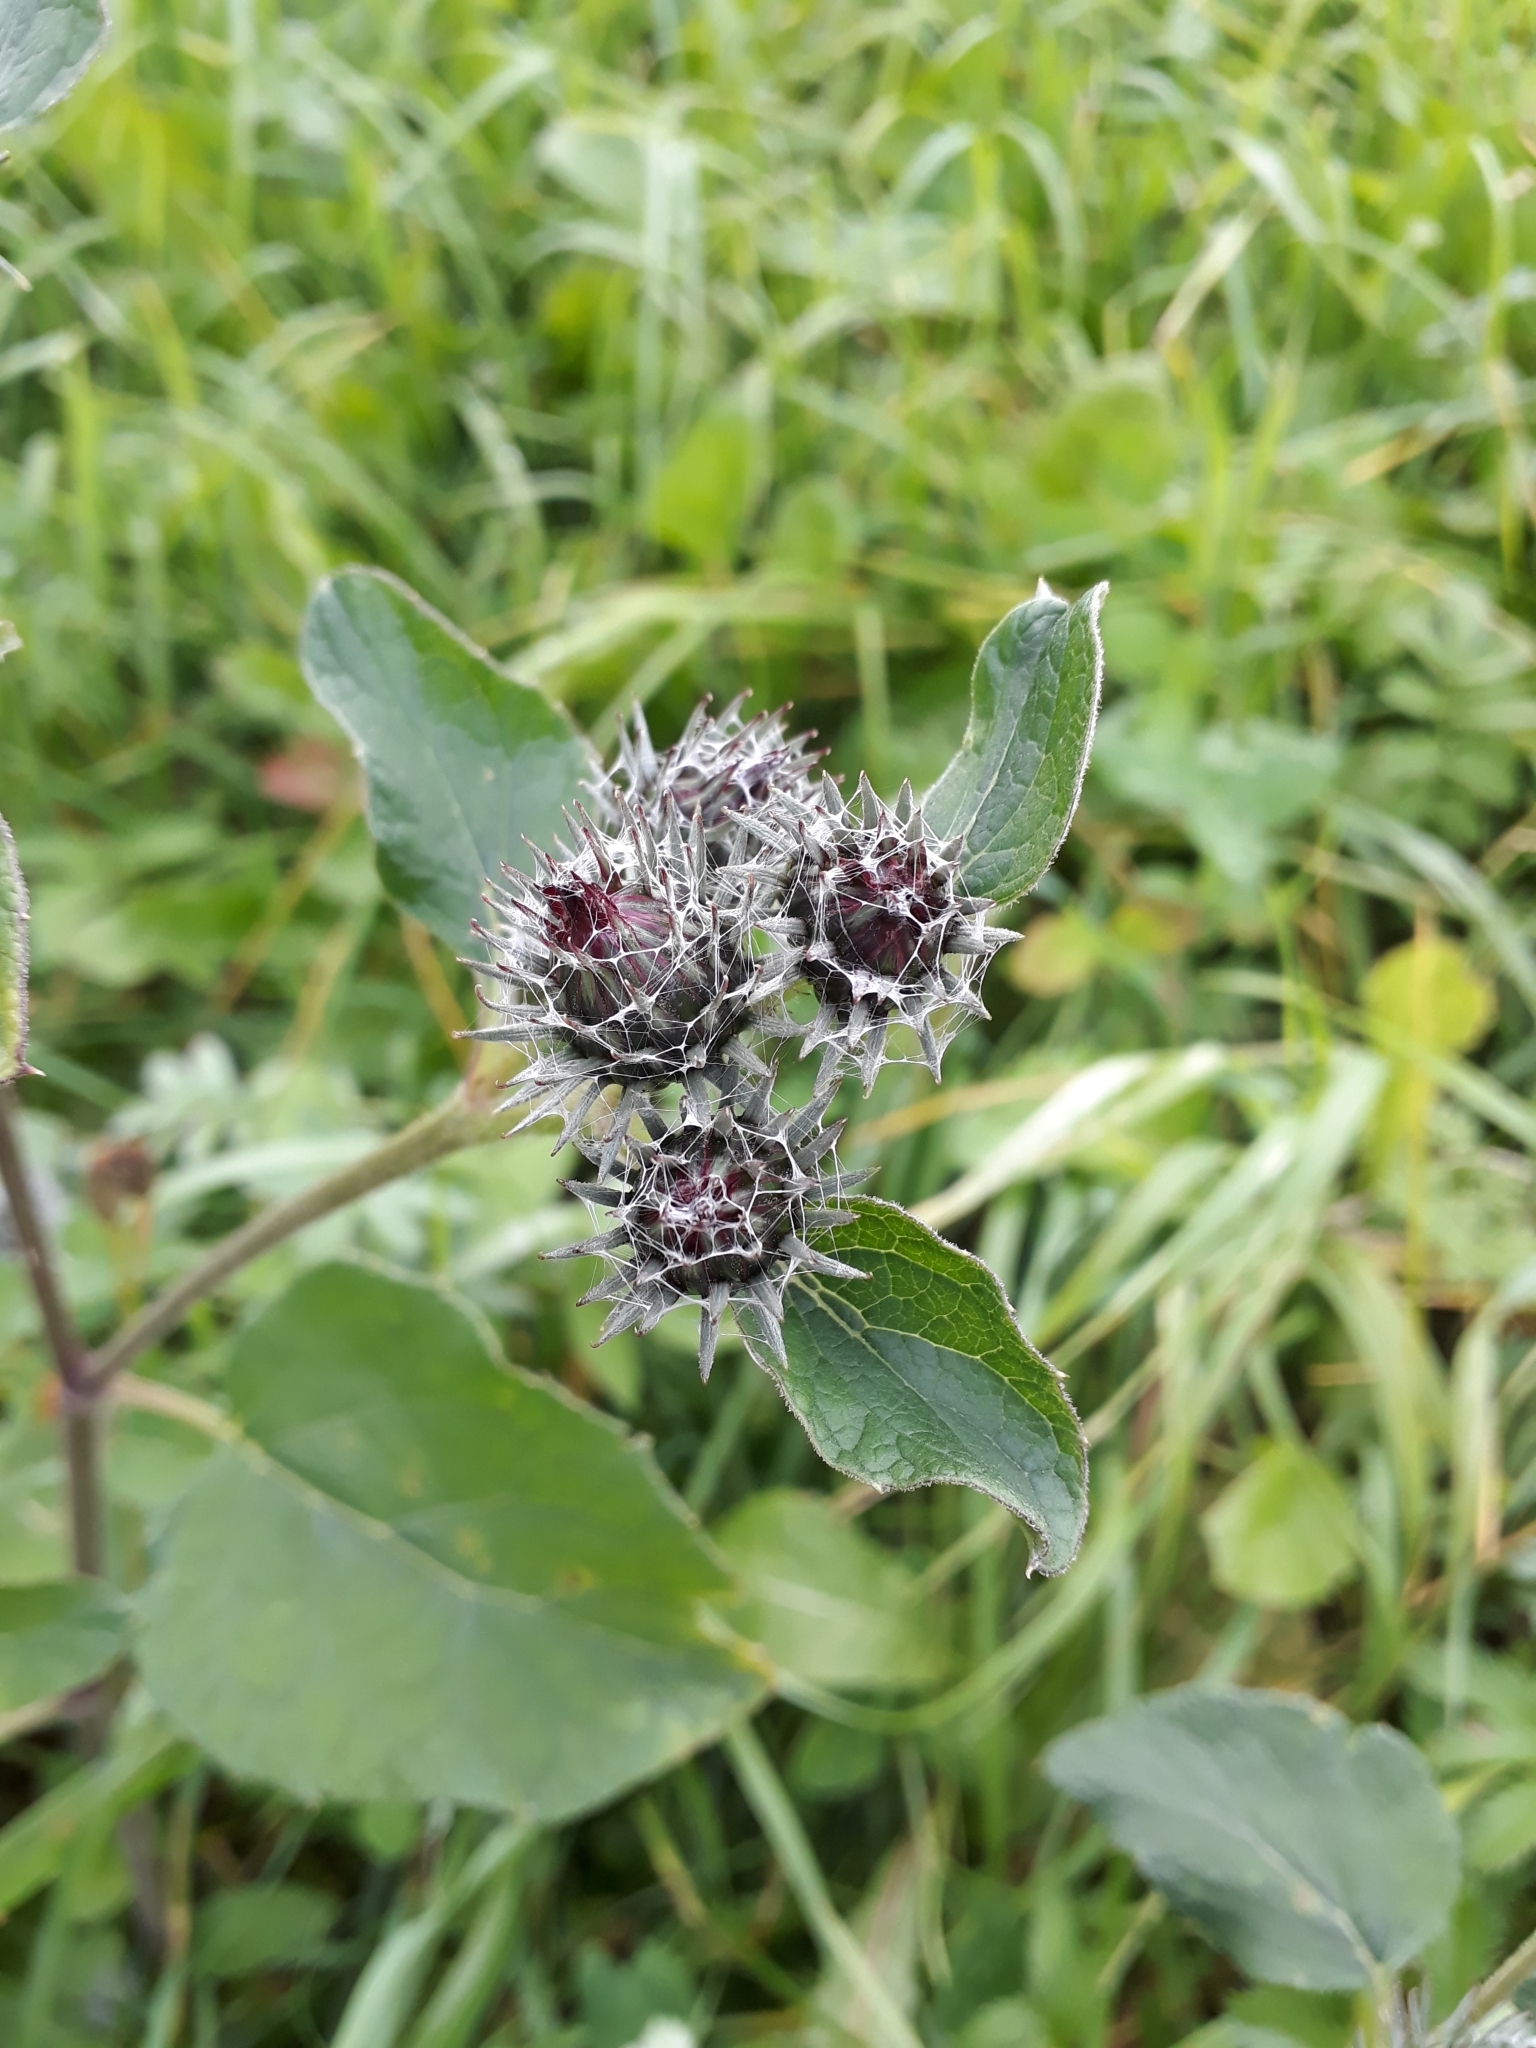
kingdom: Plantae
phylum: Tracheophyta
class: Magnoliopsida
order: Asterales
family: Asteraceae
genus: Arctium
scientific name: Arctium tomentosum
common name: Woolly burdock
